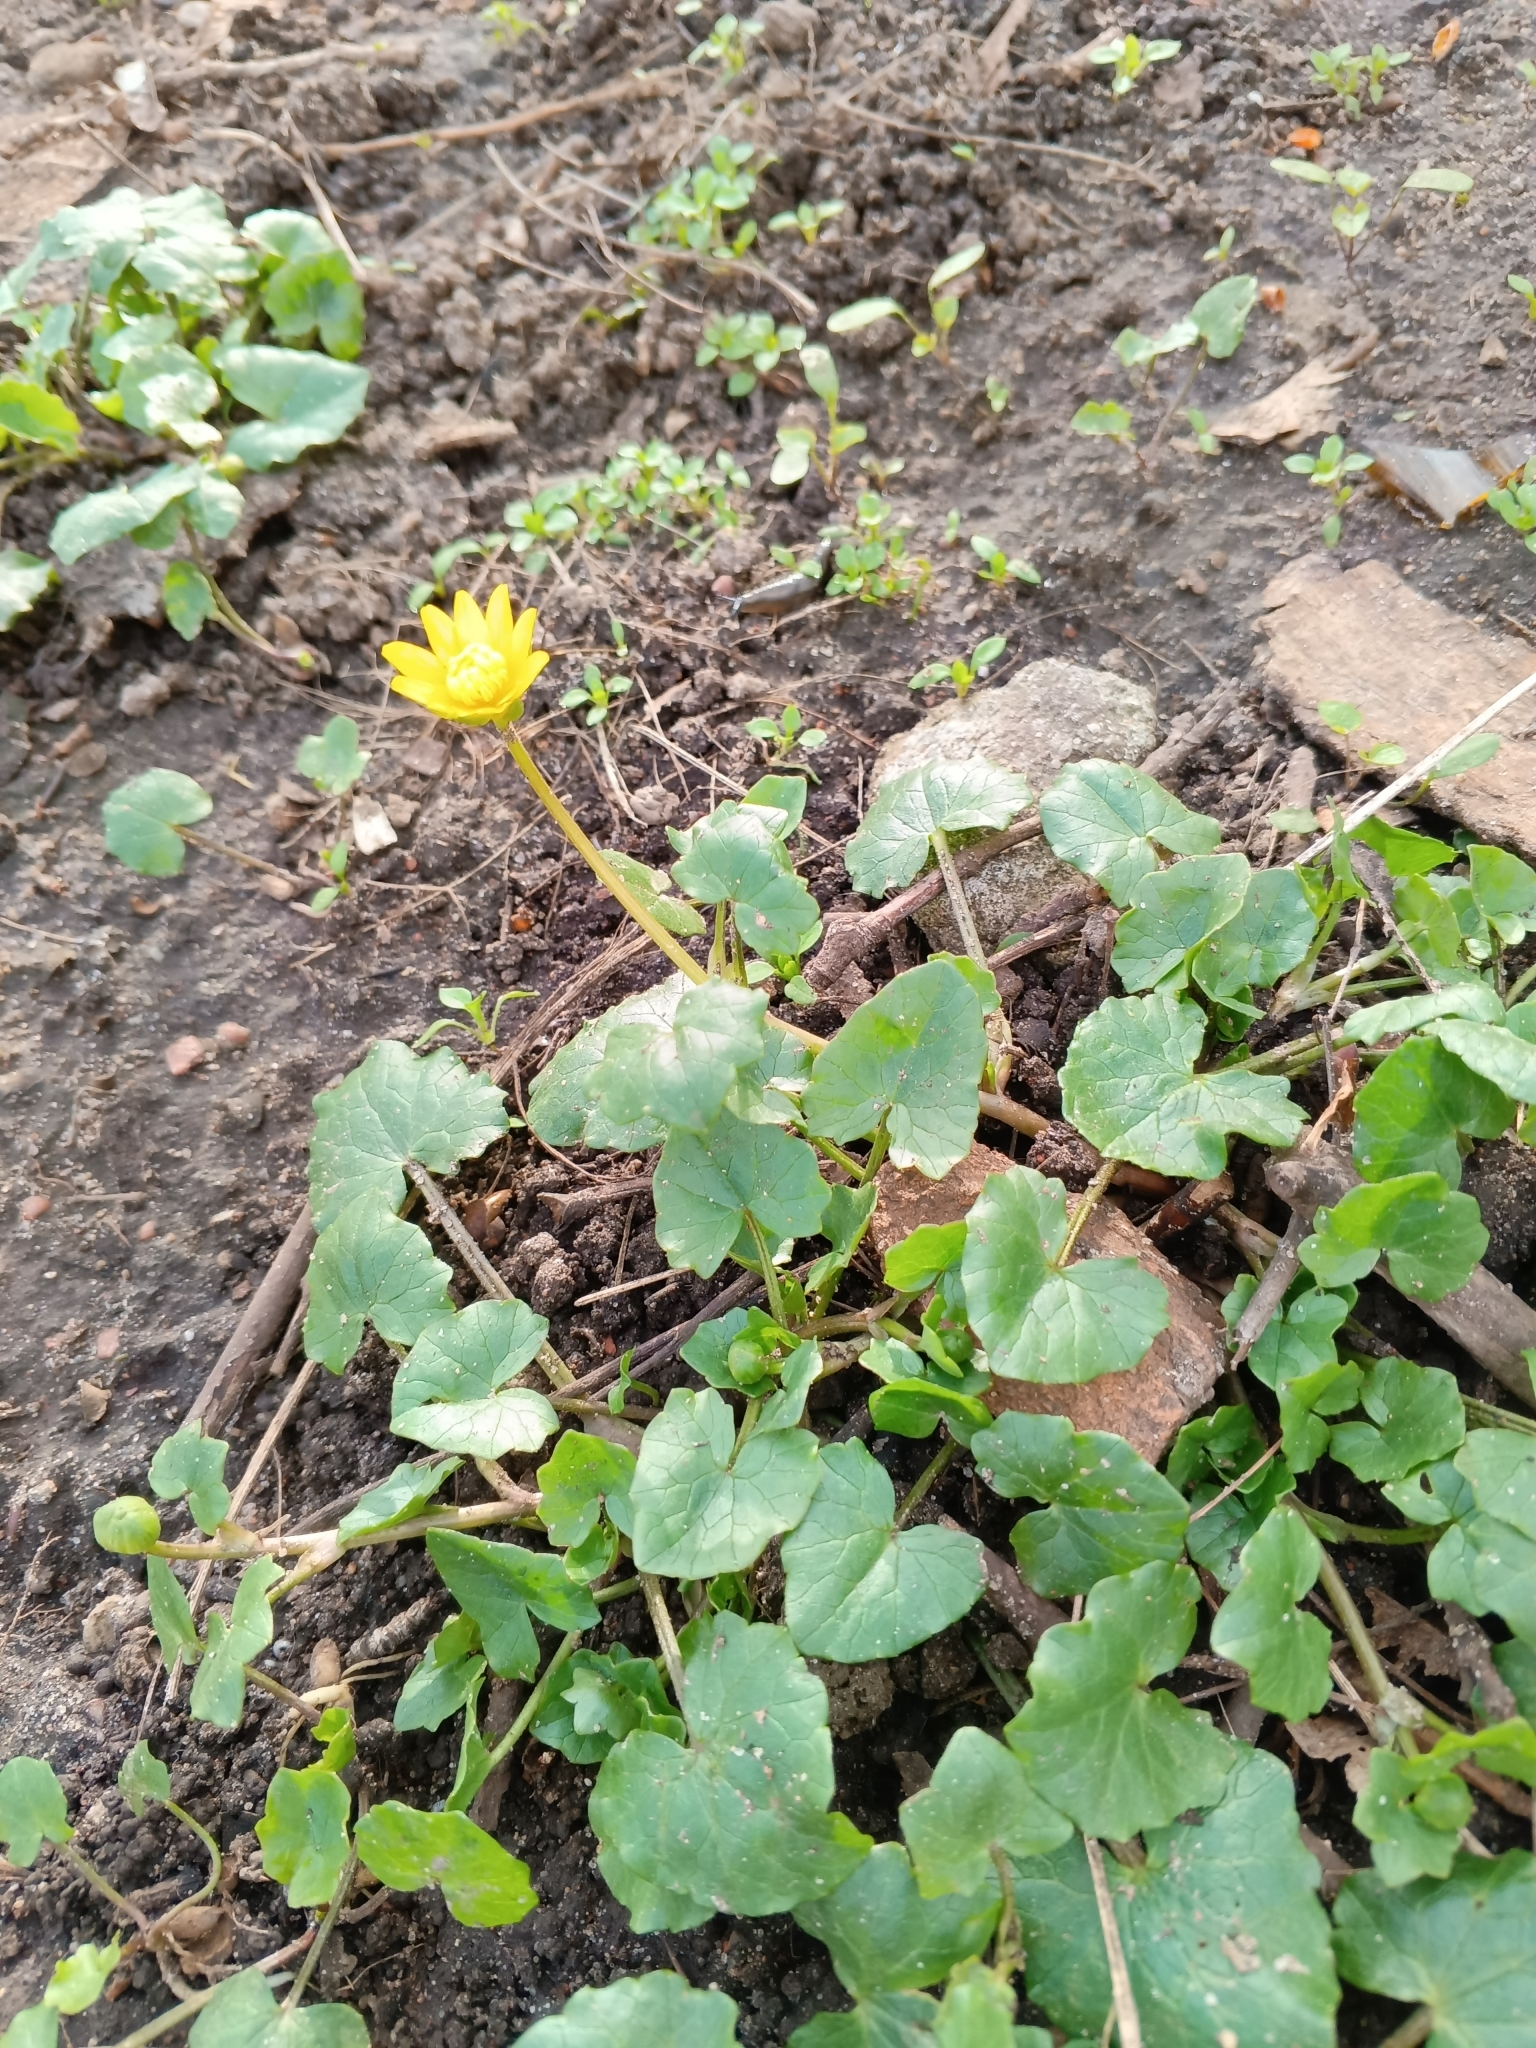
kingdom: Plantae
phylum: Tracheophyta
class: Magnoliopsida
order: Ranunculales
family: Ranunculaceae
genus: Ficaria
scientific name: Ficaria verna
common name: Lesser celandine
